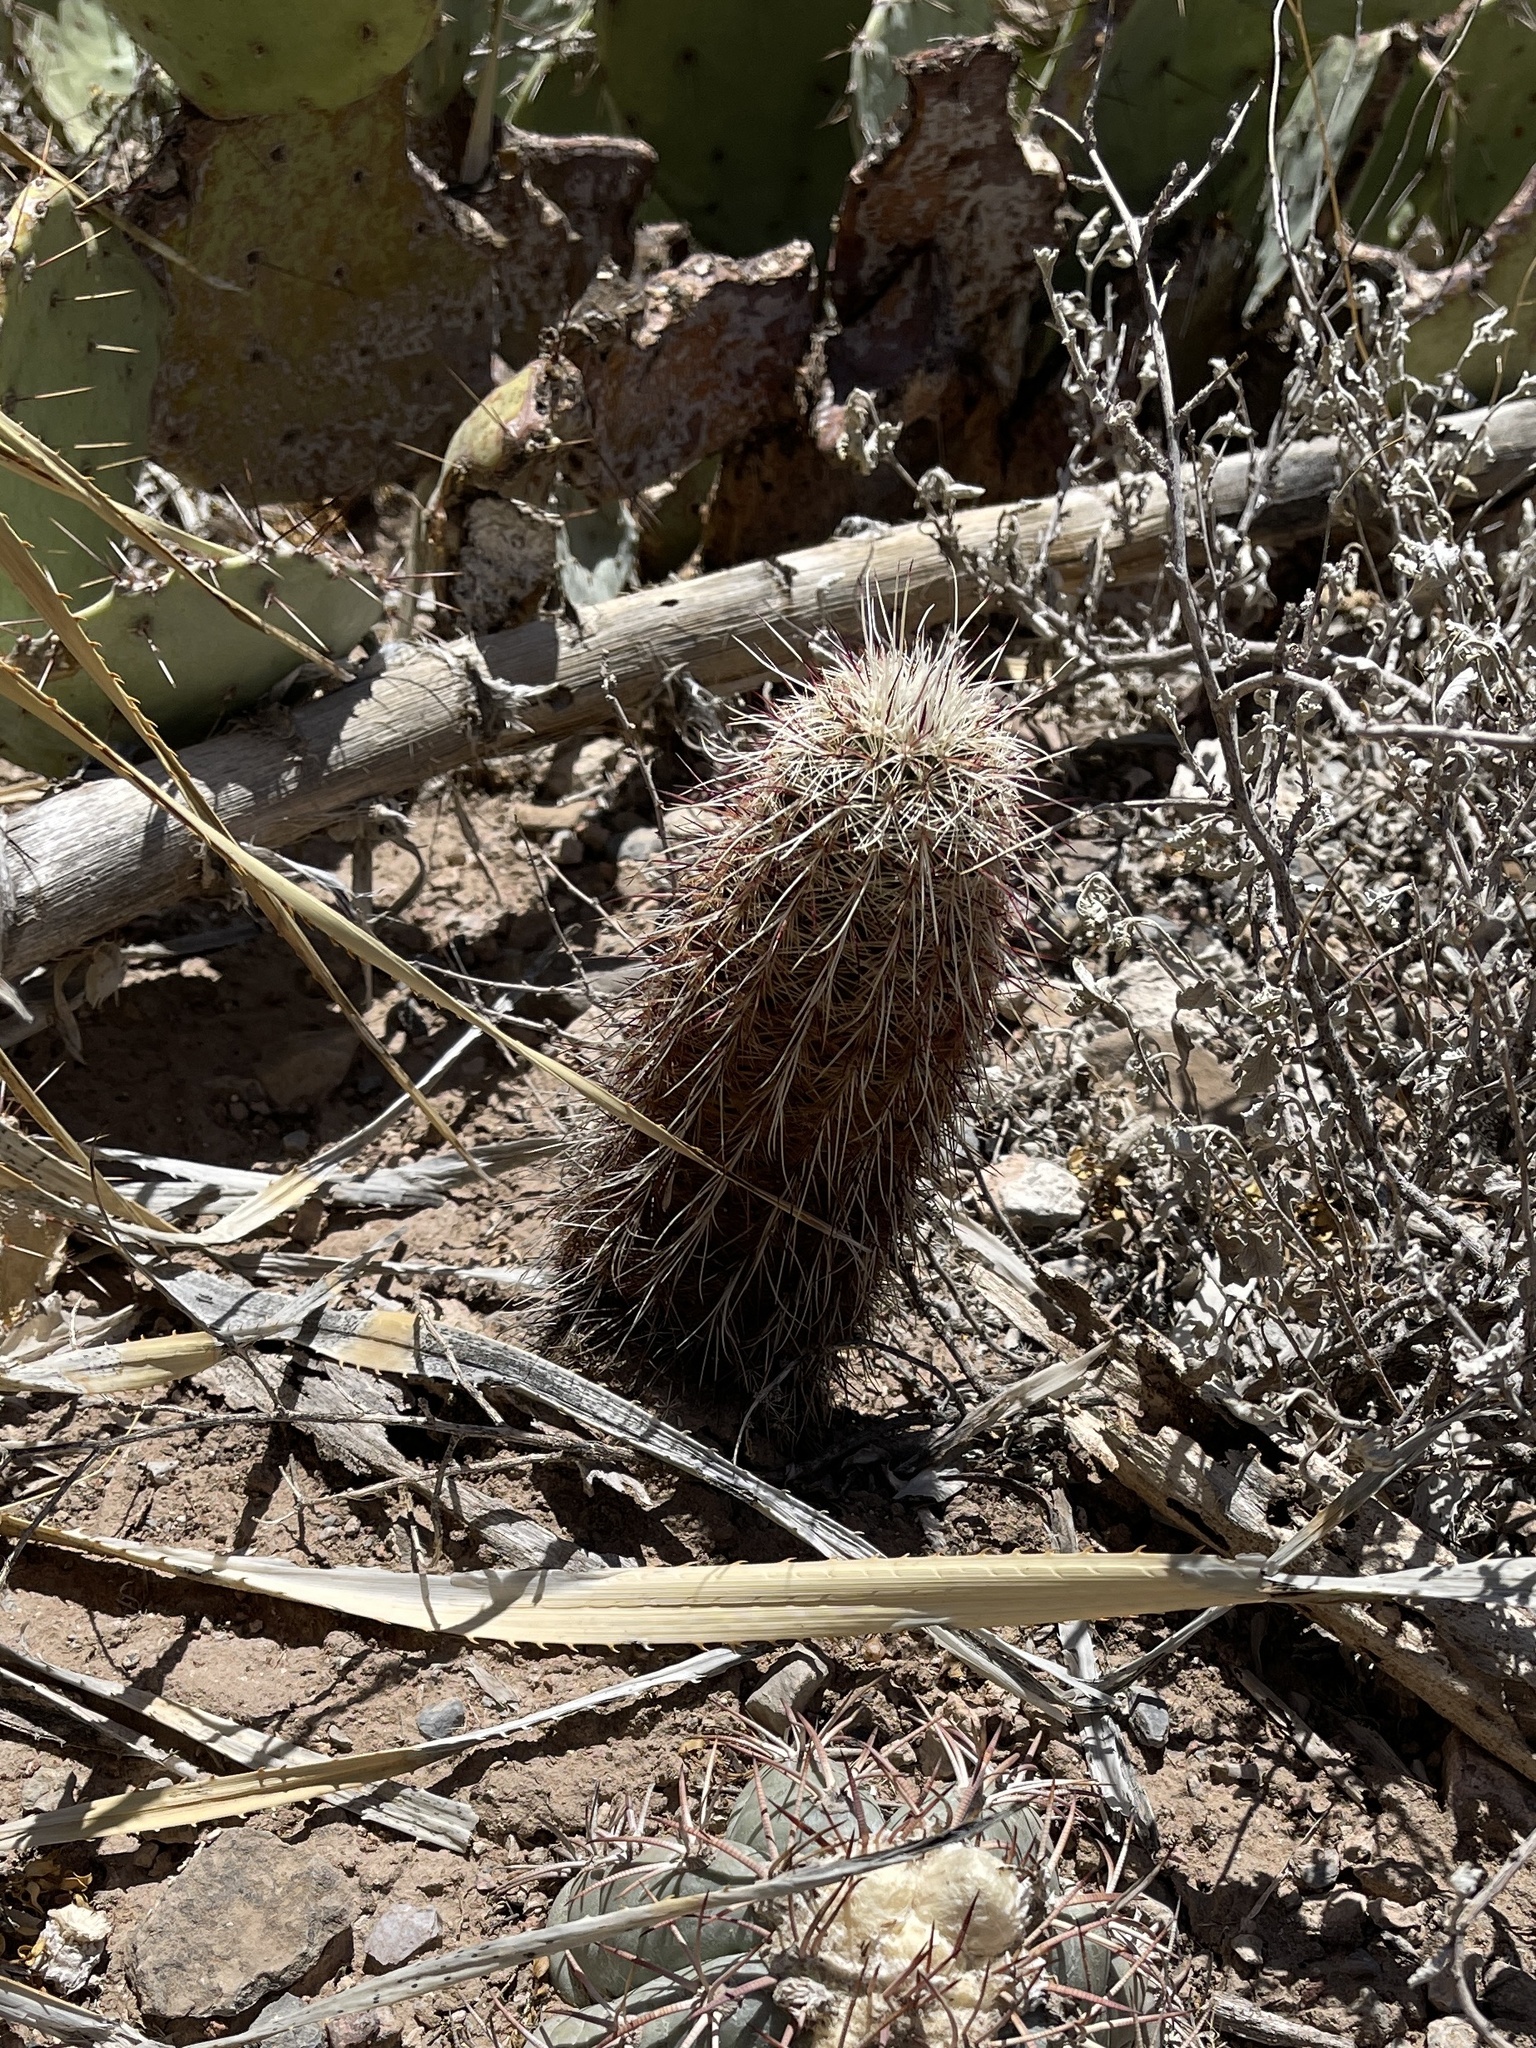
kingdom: Plantae
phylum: Tracheophyta
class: Magnoliopsida
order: Caryophyllales
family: Cactaceae
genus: Echinocereus
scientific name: Echinocereus viridiflorus
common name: Nylon hedgehog cactus
